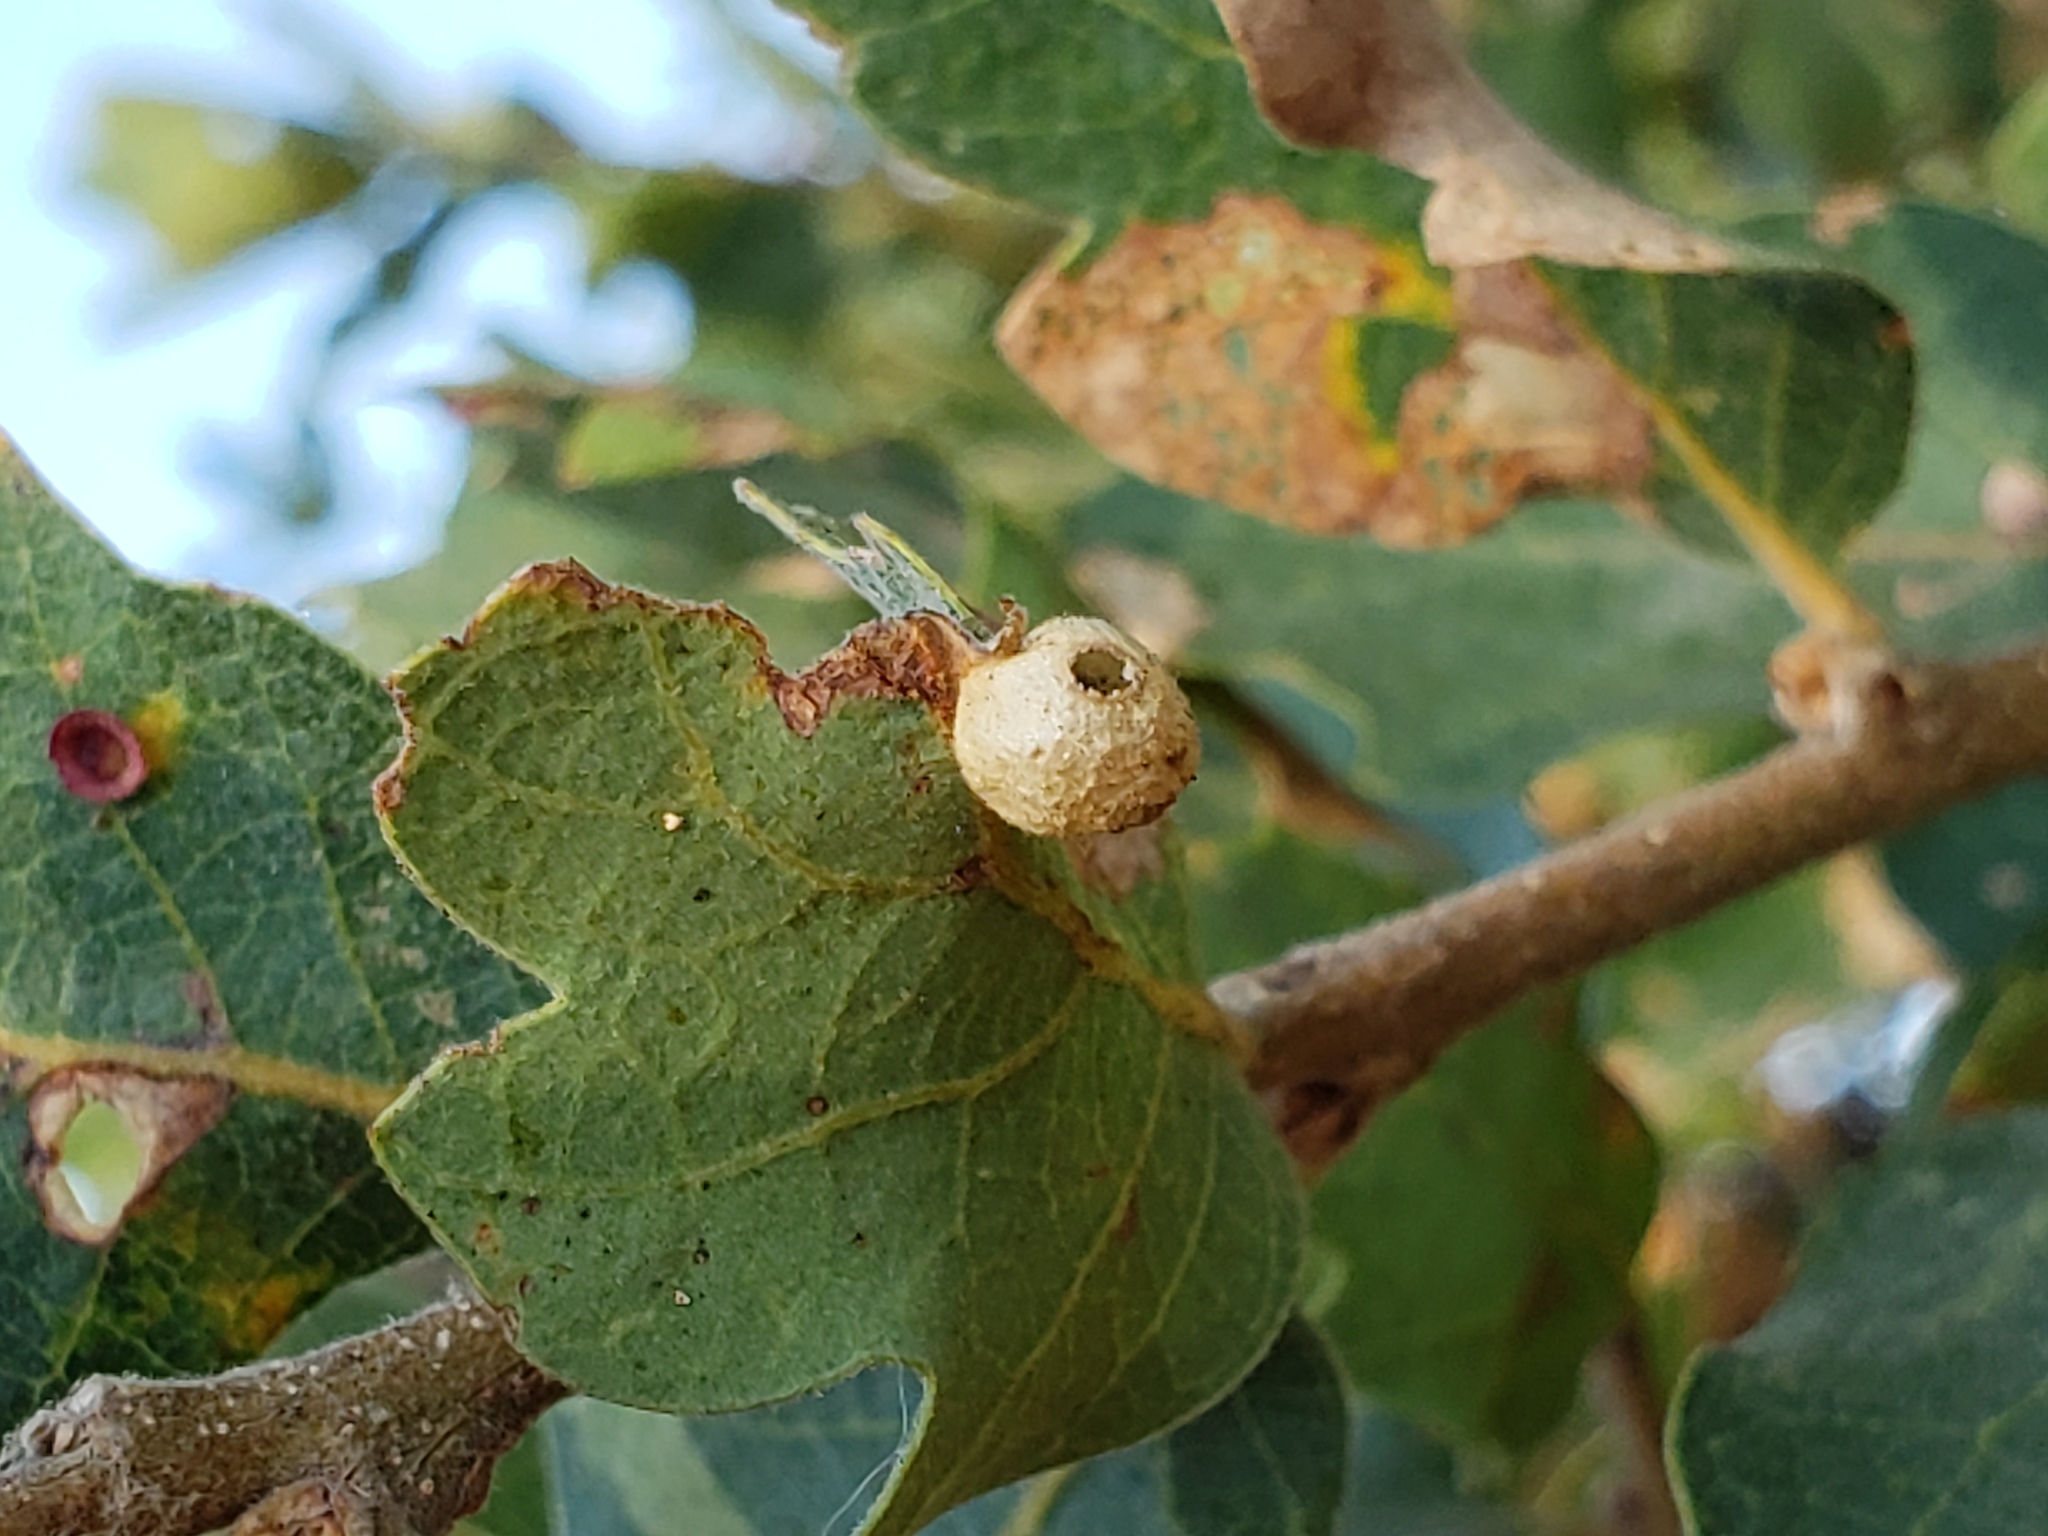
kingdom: Animalia
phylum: Arthropoda
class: Insecta
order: Hymenoptera
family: Cynipidae
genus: Andricus
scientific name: Andricus
